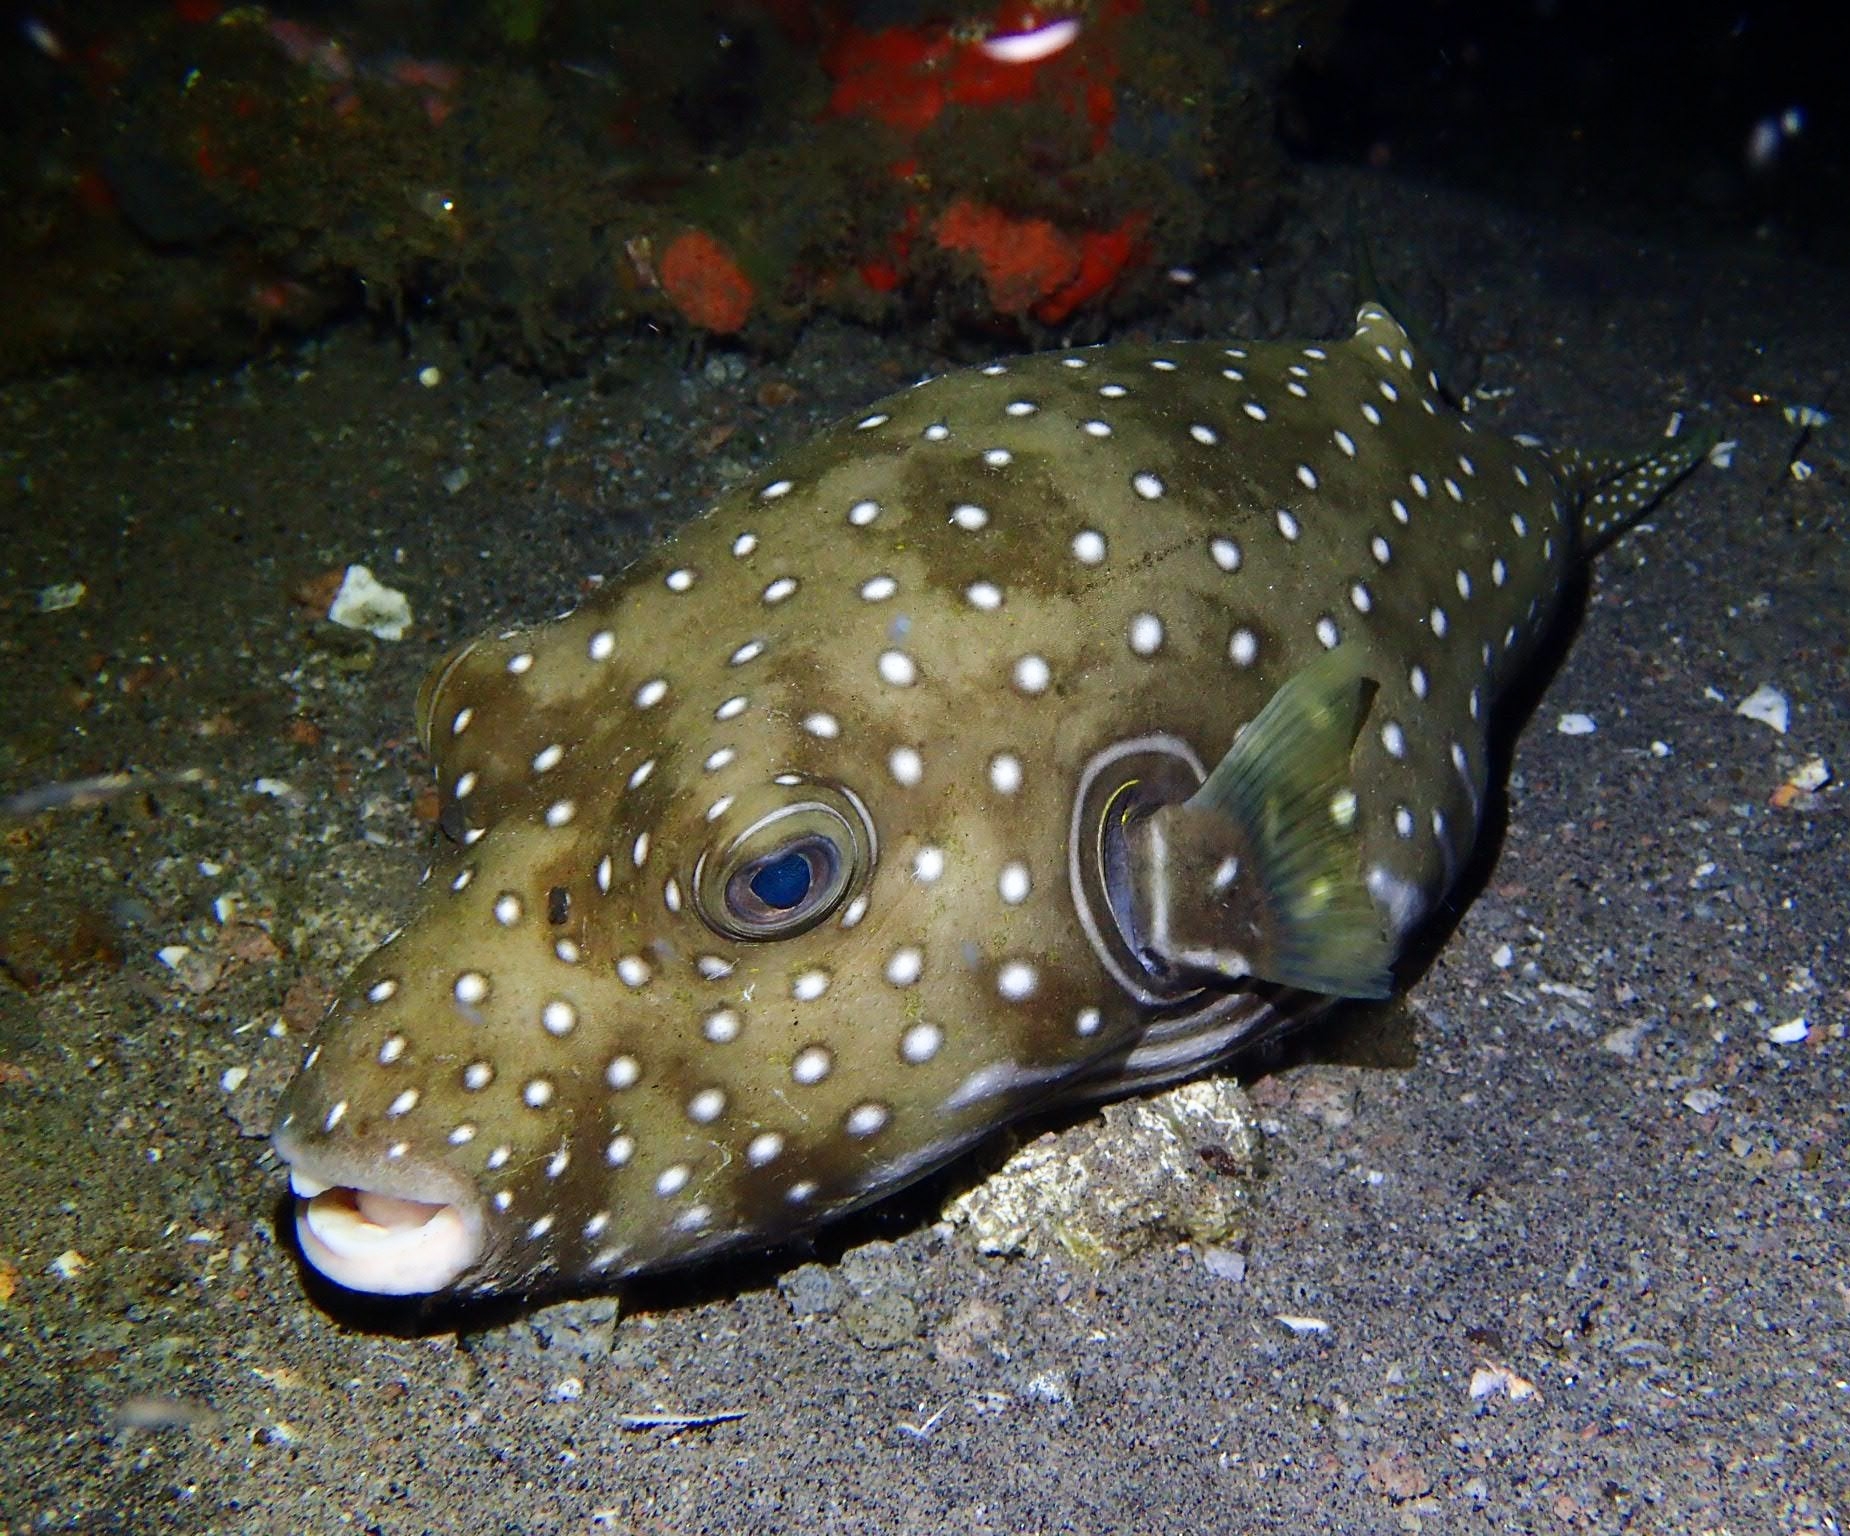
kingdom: Animalia
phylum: Chordata
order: Tetraodontiformes
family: Tetraodontidae
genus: Arothron
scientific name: Arothron hispidus
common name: Stripebelly puffer
